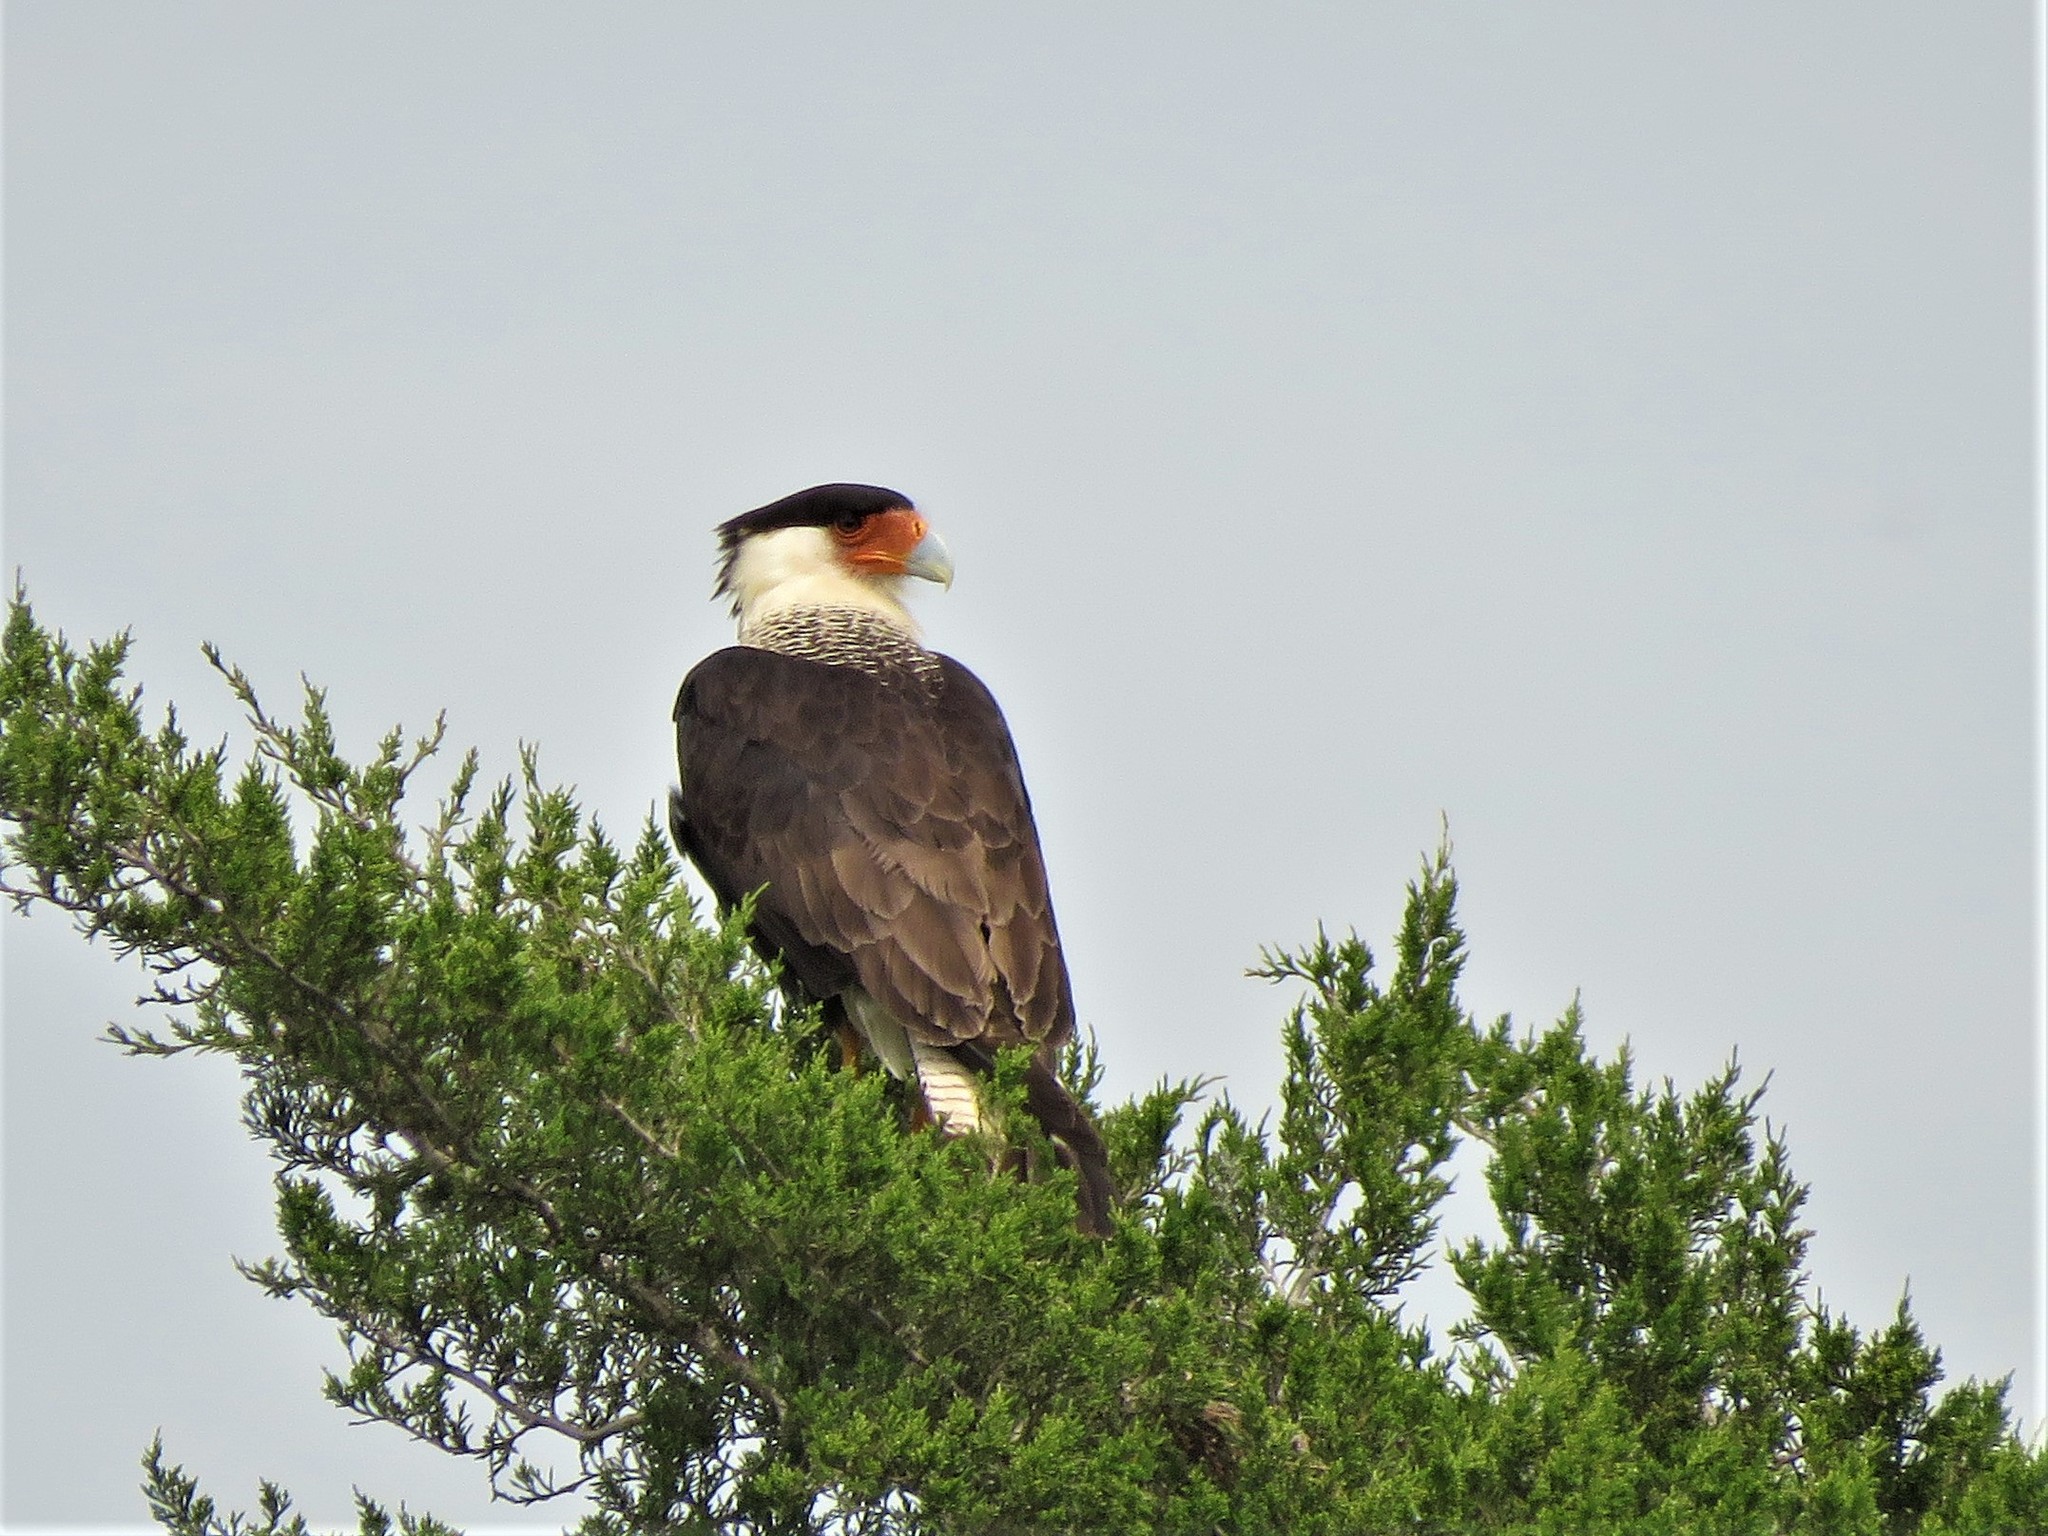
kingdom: Animalia
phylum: Chordata
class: Aves
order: Falconiformes
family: Falconidae
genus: Caracara
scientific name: Caracara plancus
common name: Southern caracara
